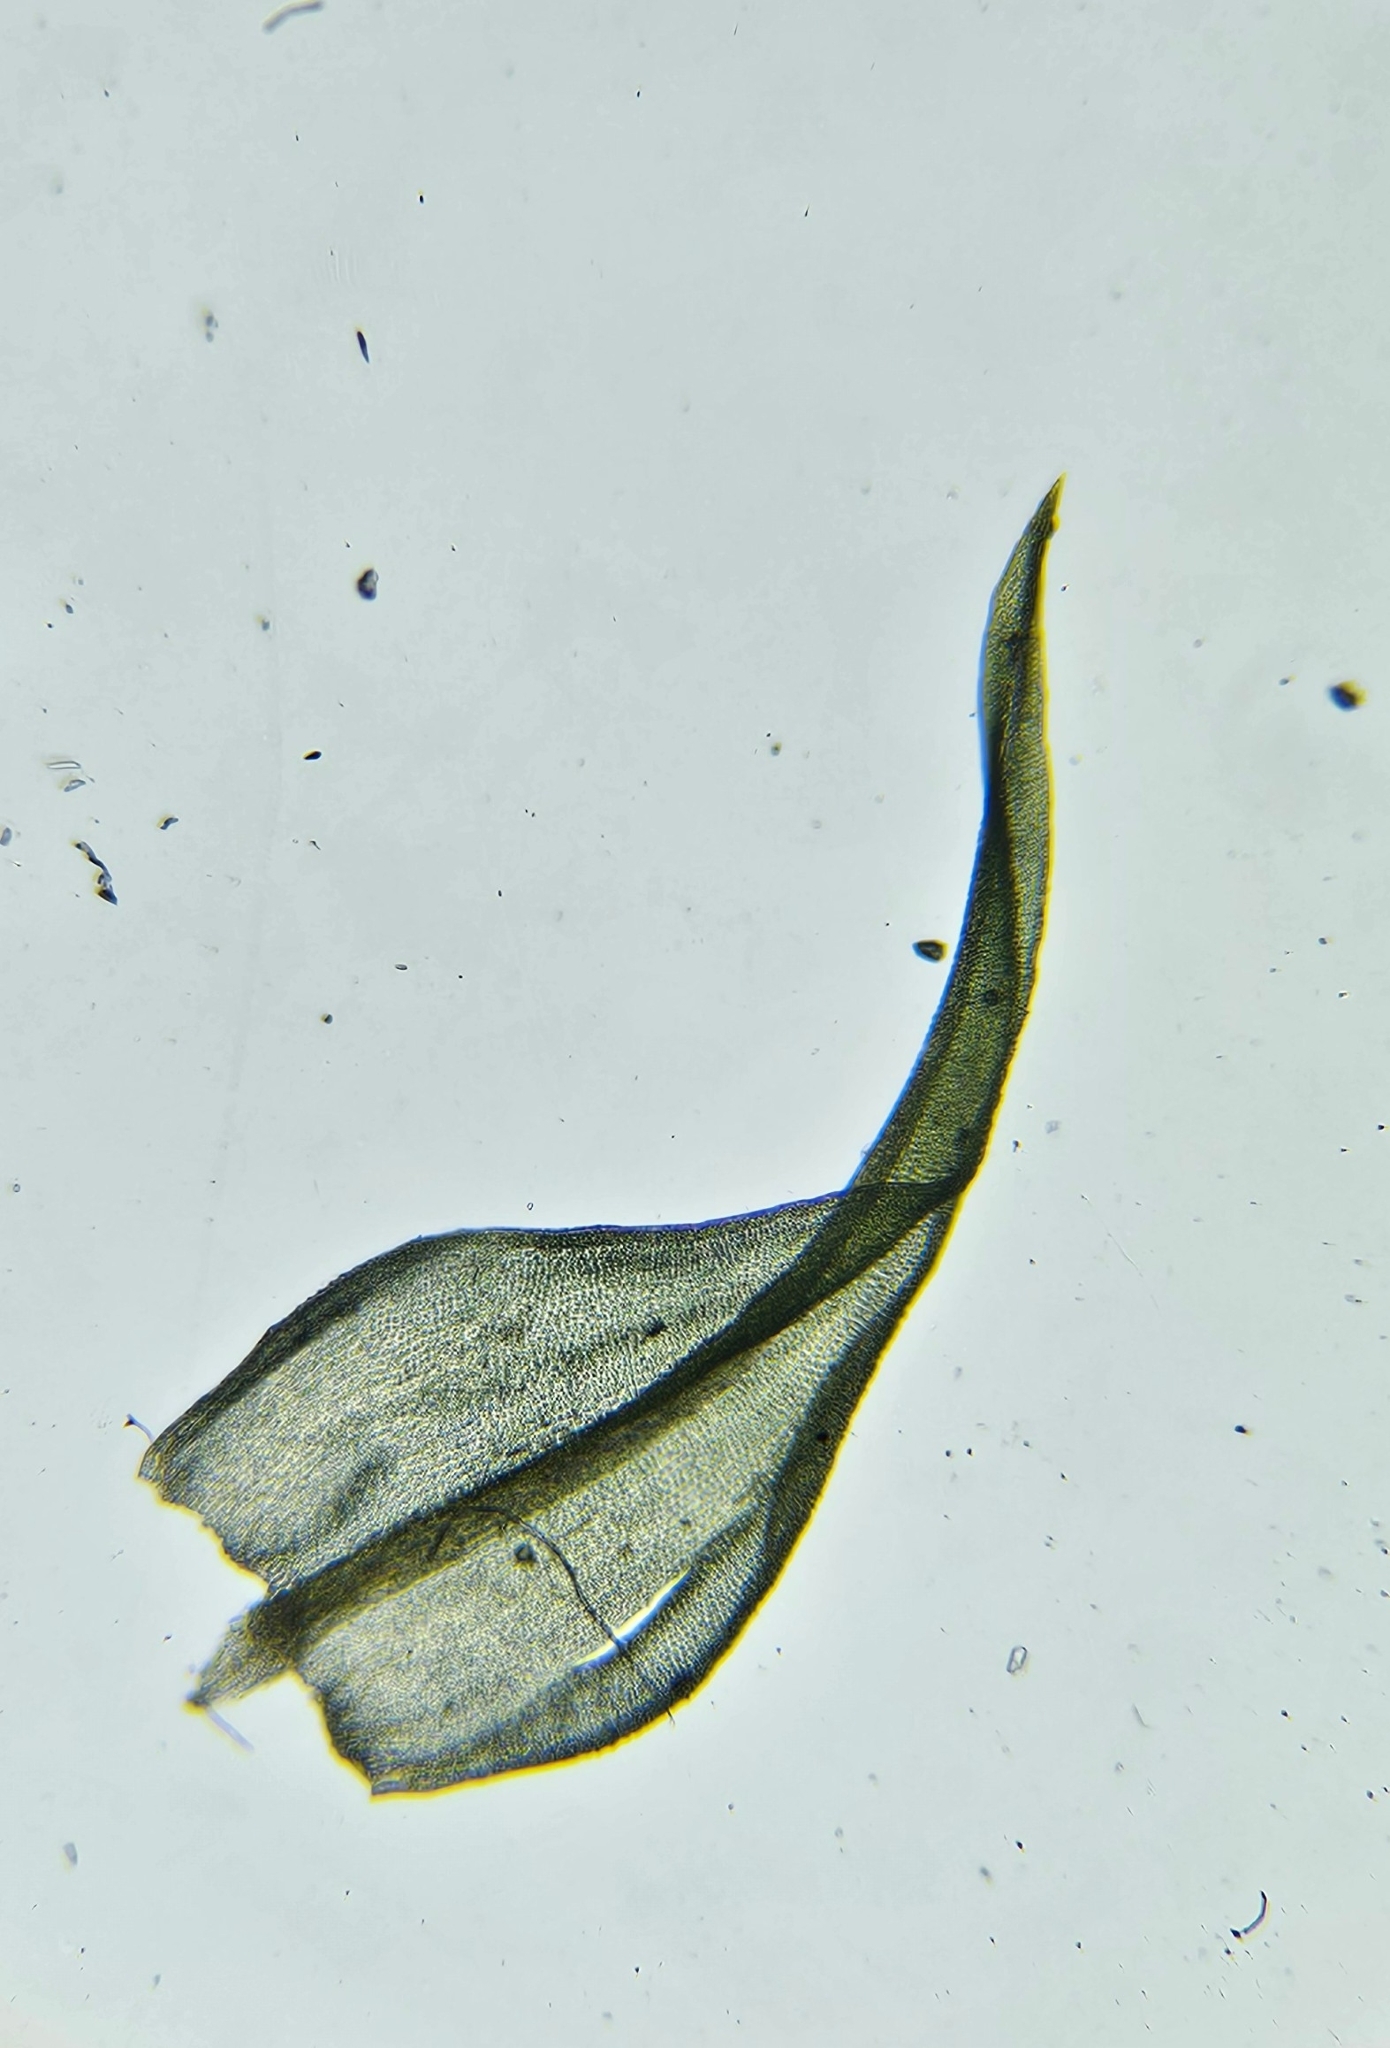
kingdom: Plantae
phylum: Bryophyta
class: Bryopsida
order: Pottiales
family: Pottiaceae
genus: Geheebia
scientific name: Geheebia fallax
